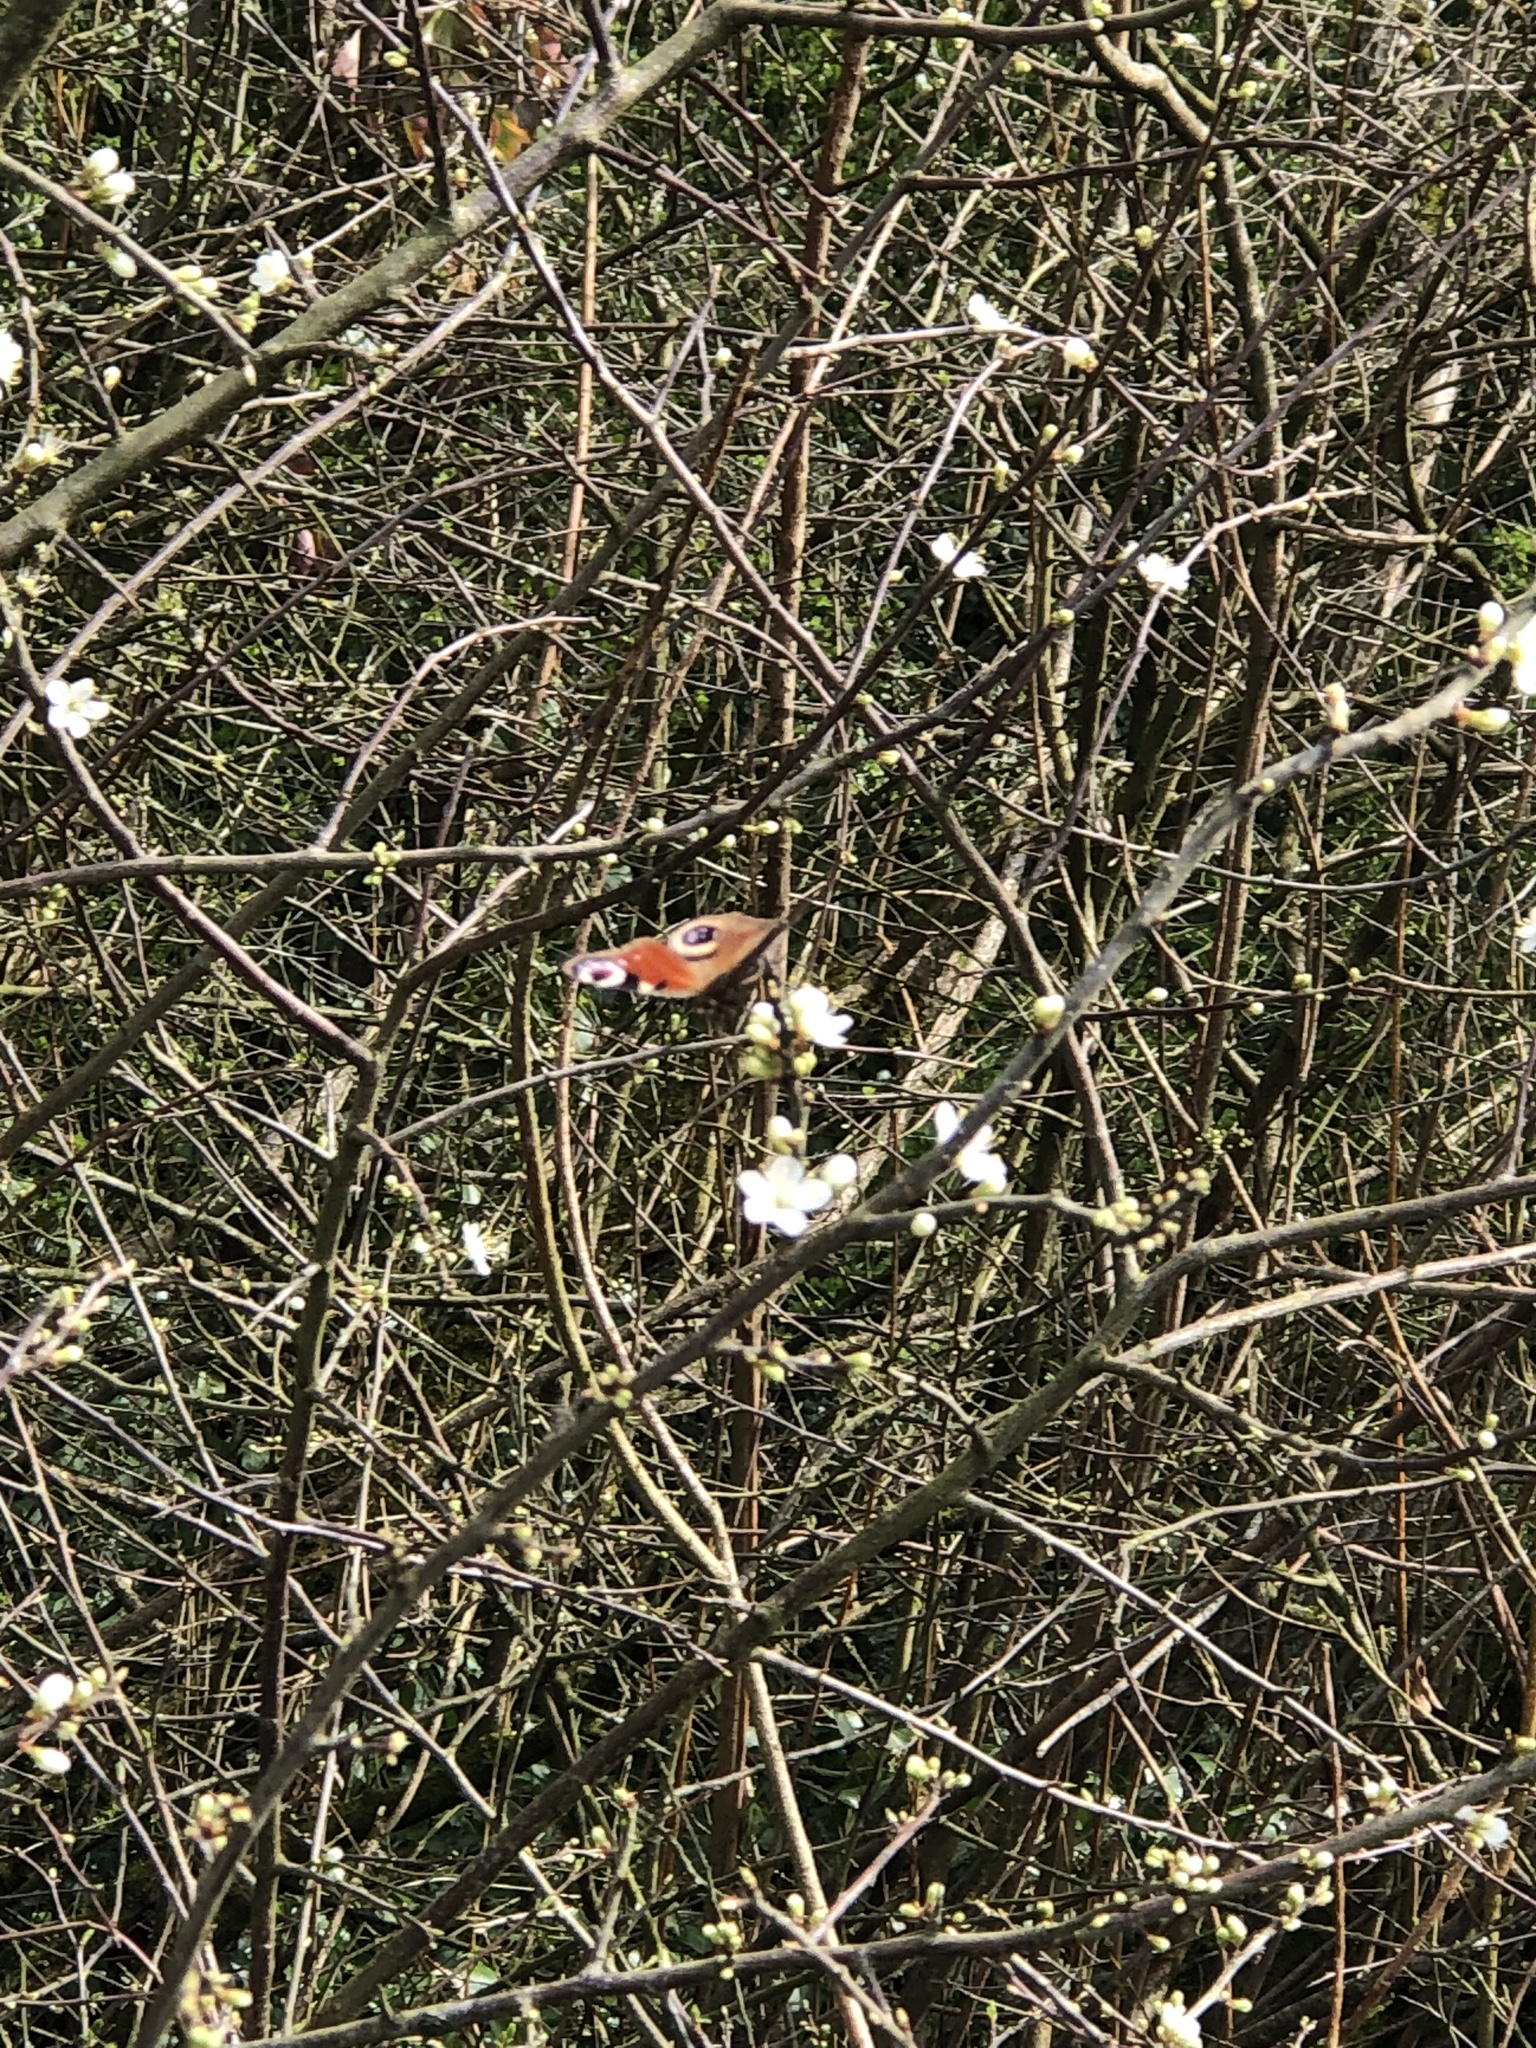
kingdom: Animalia
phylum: Arthropoda
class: Insecta
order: Lepidoptera
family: Nymphalidae
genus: Aglais
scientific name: Aglais io
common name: Peacock
